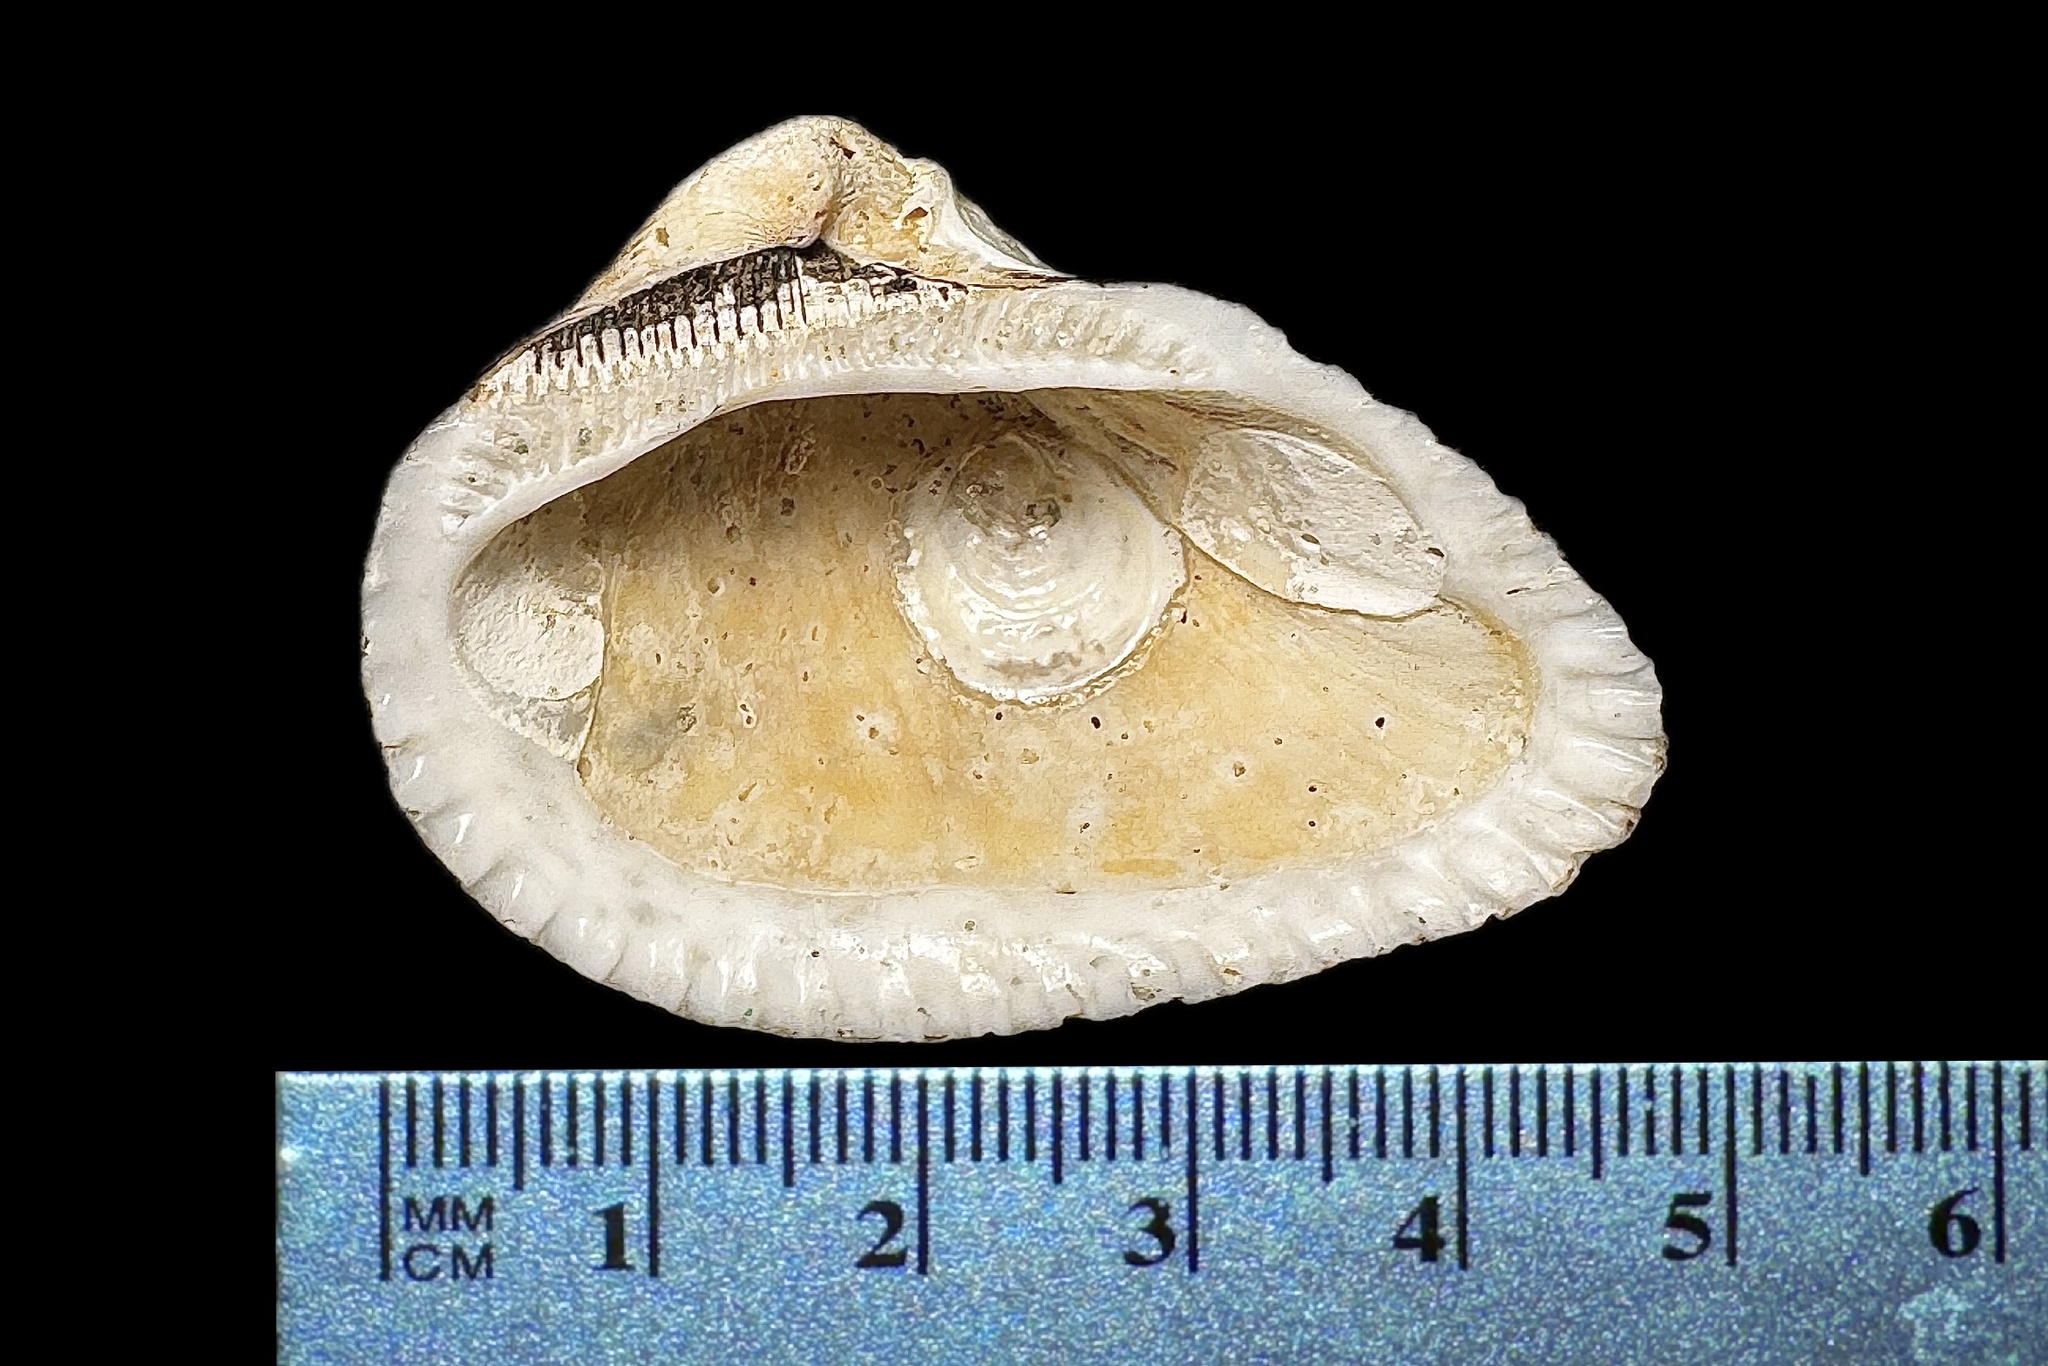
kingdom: Animalia
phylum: Mollusca
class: Bivalvia
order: Arcida
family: Noetiidae
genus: Noetia
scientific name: Noetia ponderosa
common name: Ponderous ark
